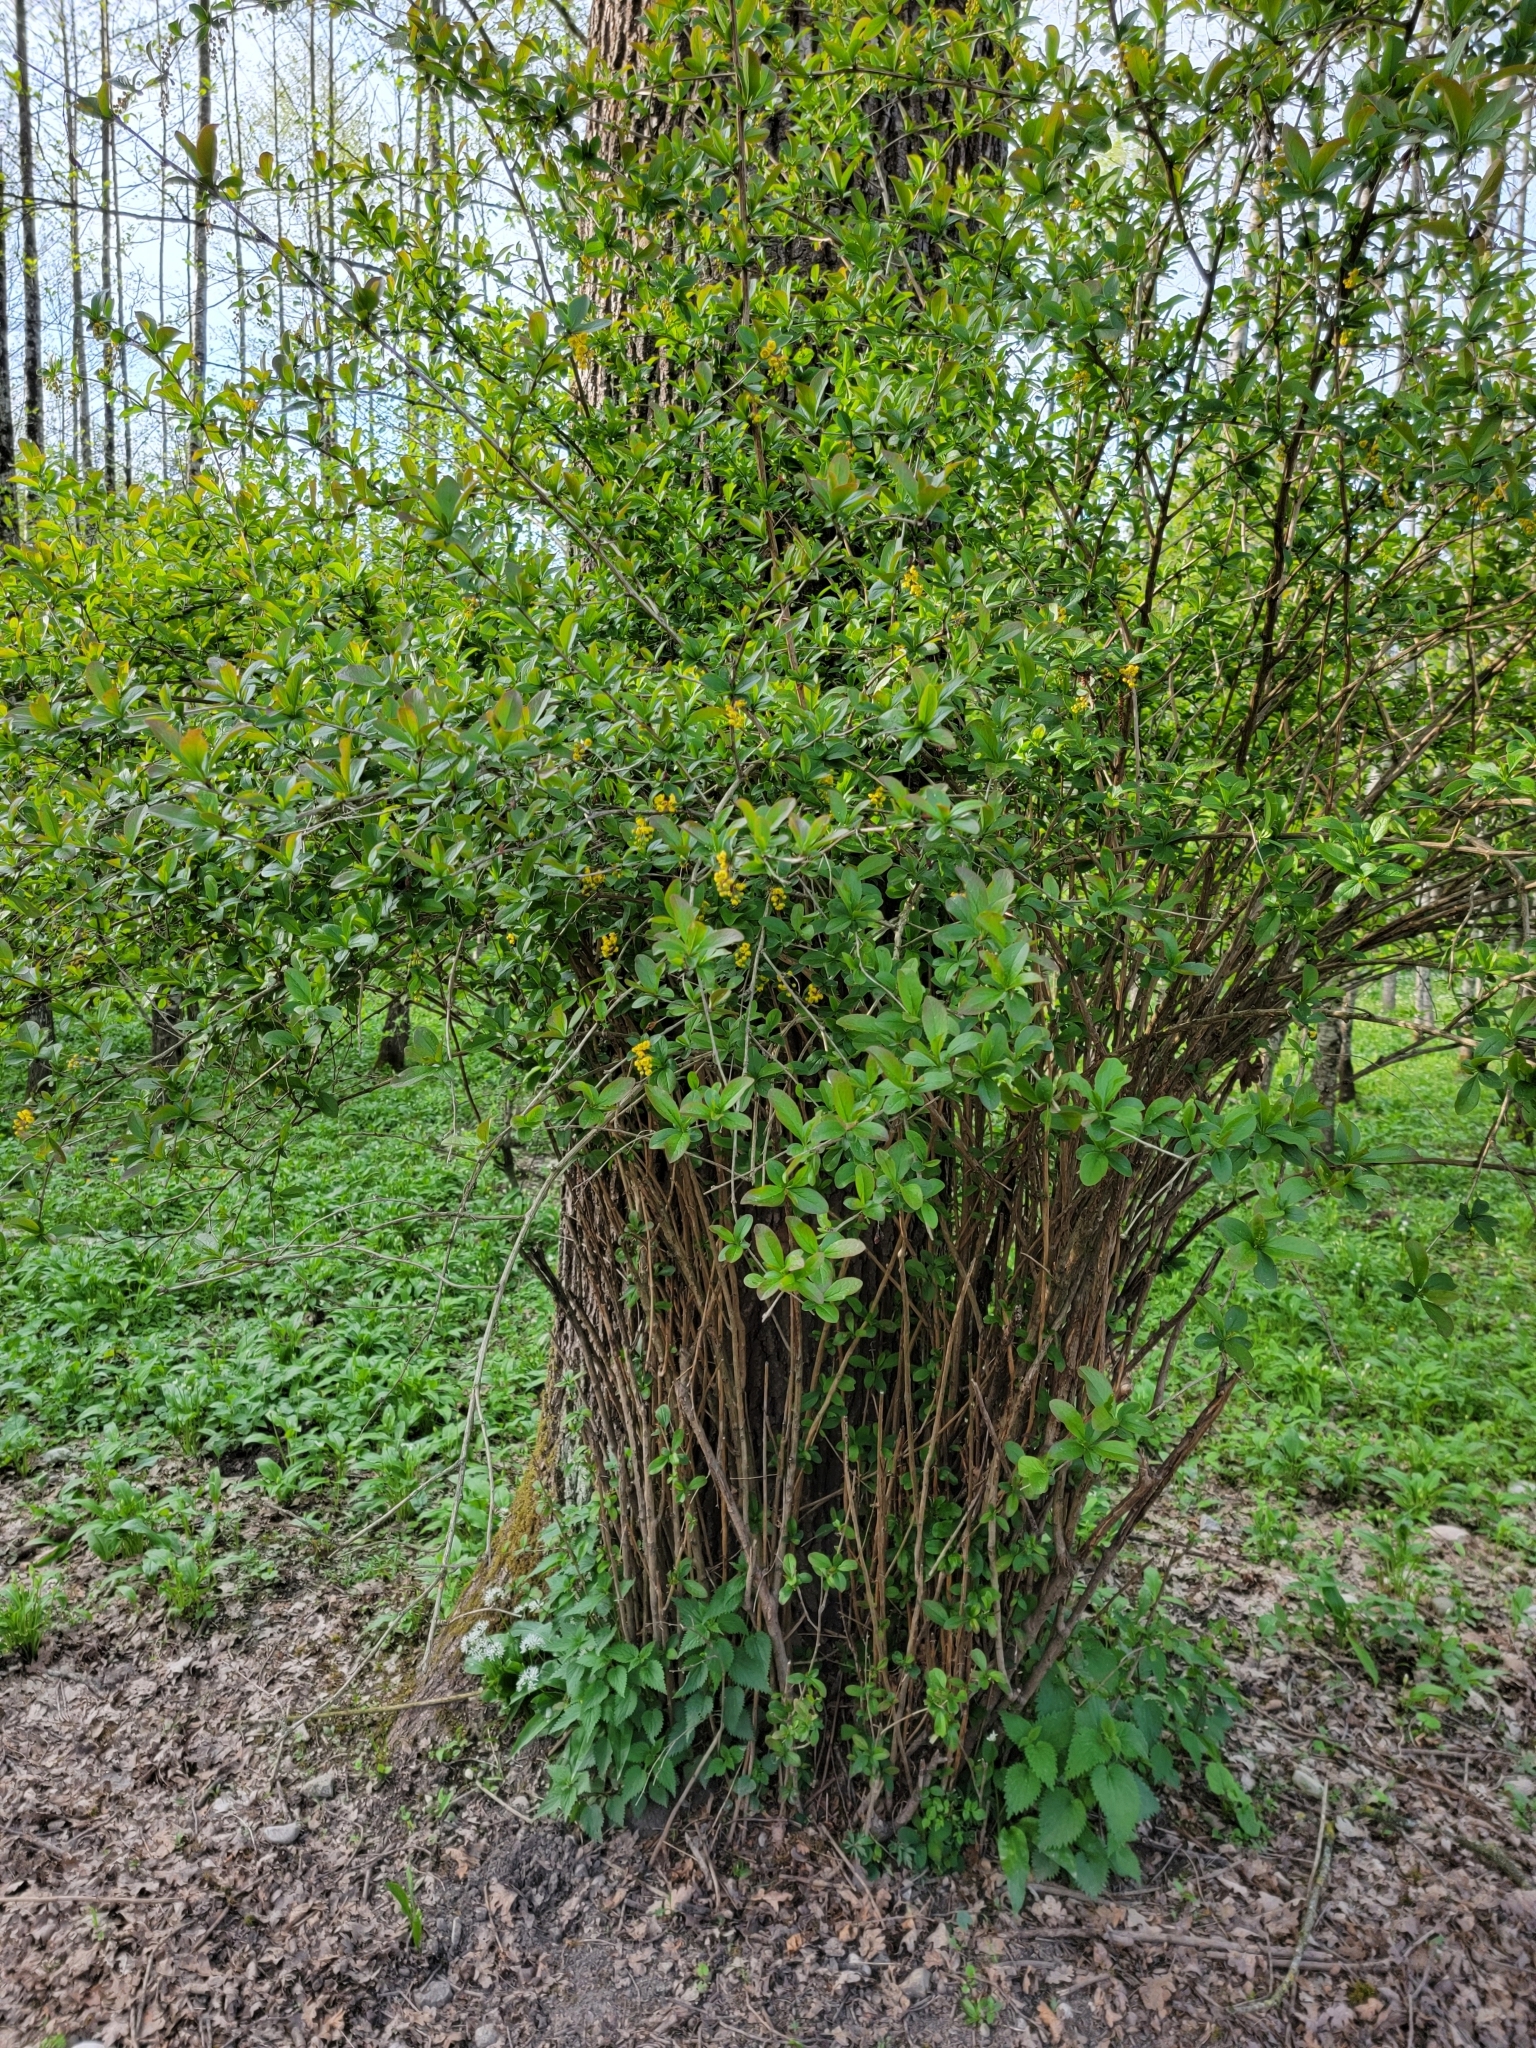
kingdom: Plantae
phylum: Tracheophyta
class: Magnoliopsida
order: Ranunculales
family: Berberidaceae
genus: Berberis
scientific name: Berberis vulgaris
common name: Barberry
